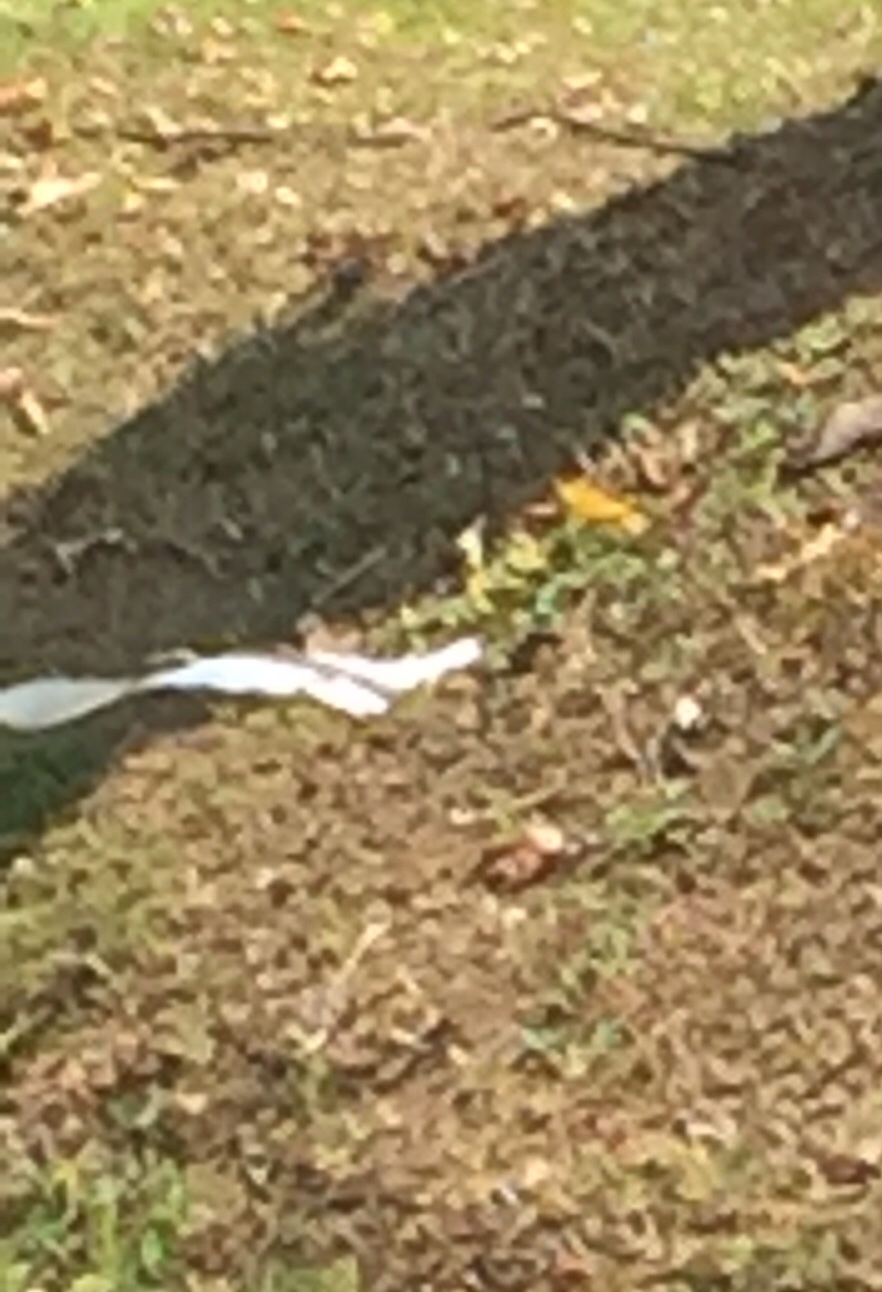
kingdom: Animalia
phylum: Chordata
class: Aves
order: Pelecaniformes
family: Ardeidae
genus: Ardeola
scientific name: Ardeola bacchus
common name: Chinese pond heron
